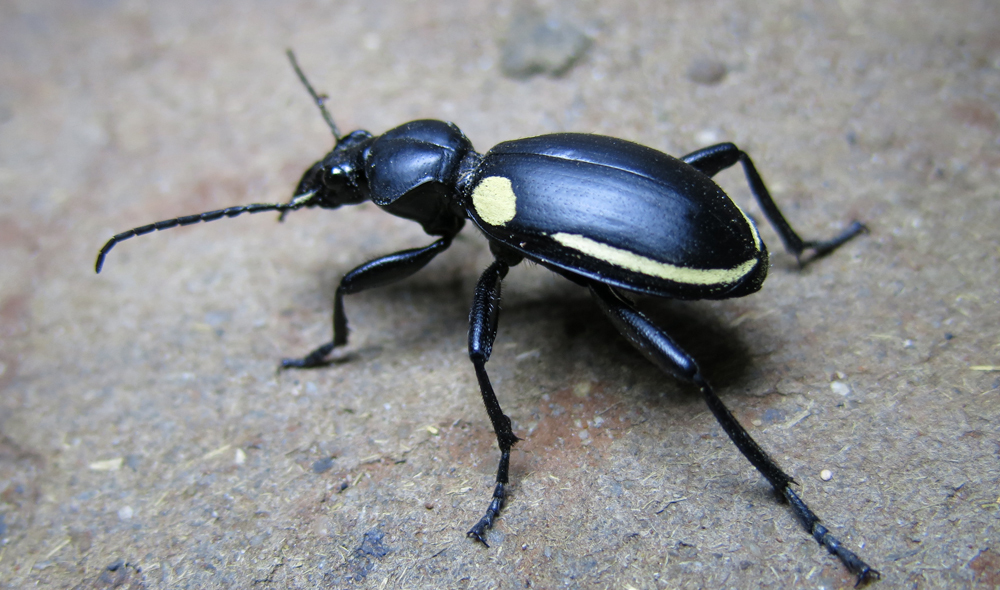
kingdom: Animalia
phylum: Arthropoda
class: Insecta
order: Coleoptera
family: Carabidae
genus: Anthia
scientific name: Anthia
